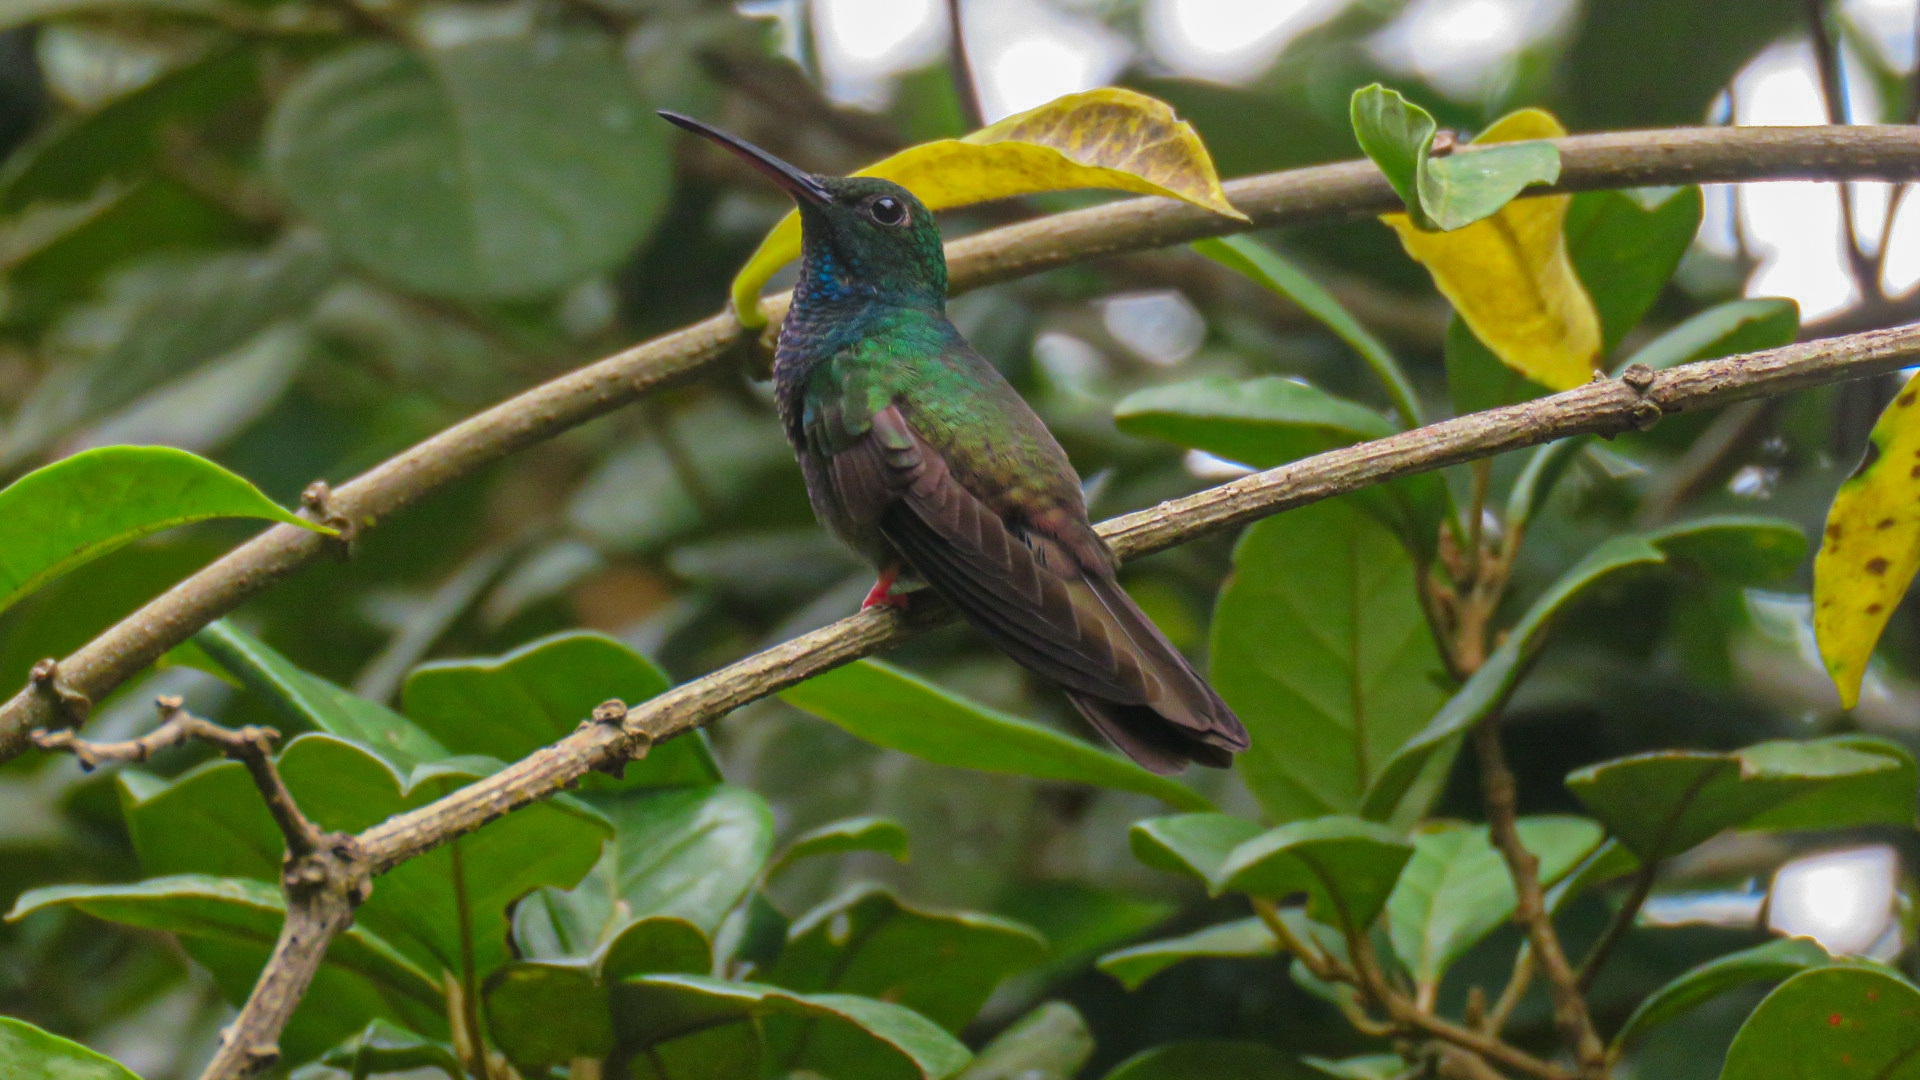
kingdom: Animalia
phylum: Chordata
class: Aves
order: Apodiformes
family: Trochilidae
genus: Chalybura
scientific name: Chalybura urochrysia
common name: Bronze-tailed plumeleteer
